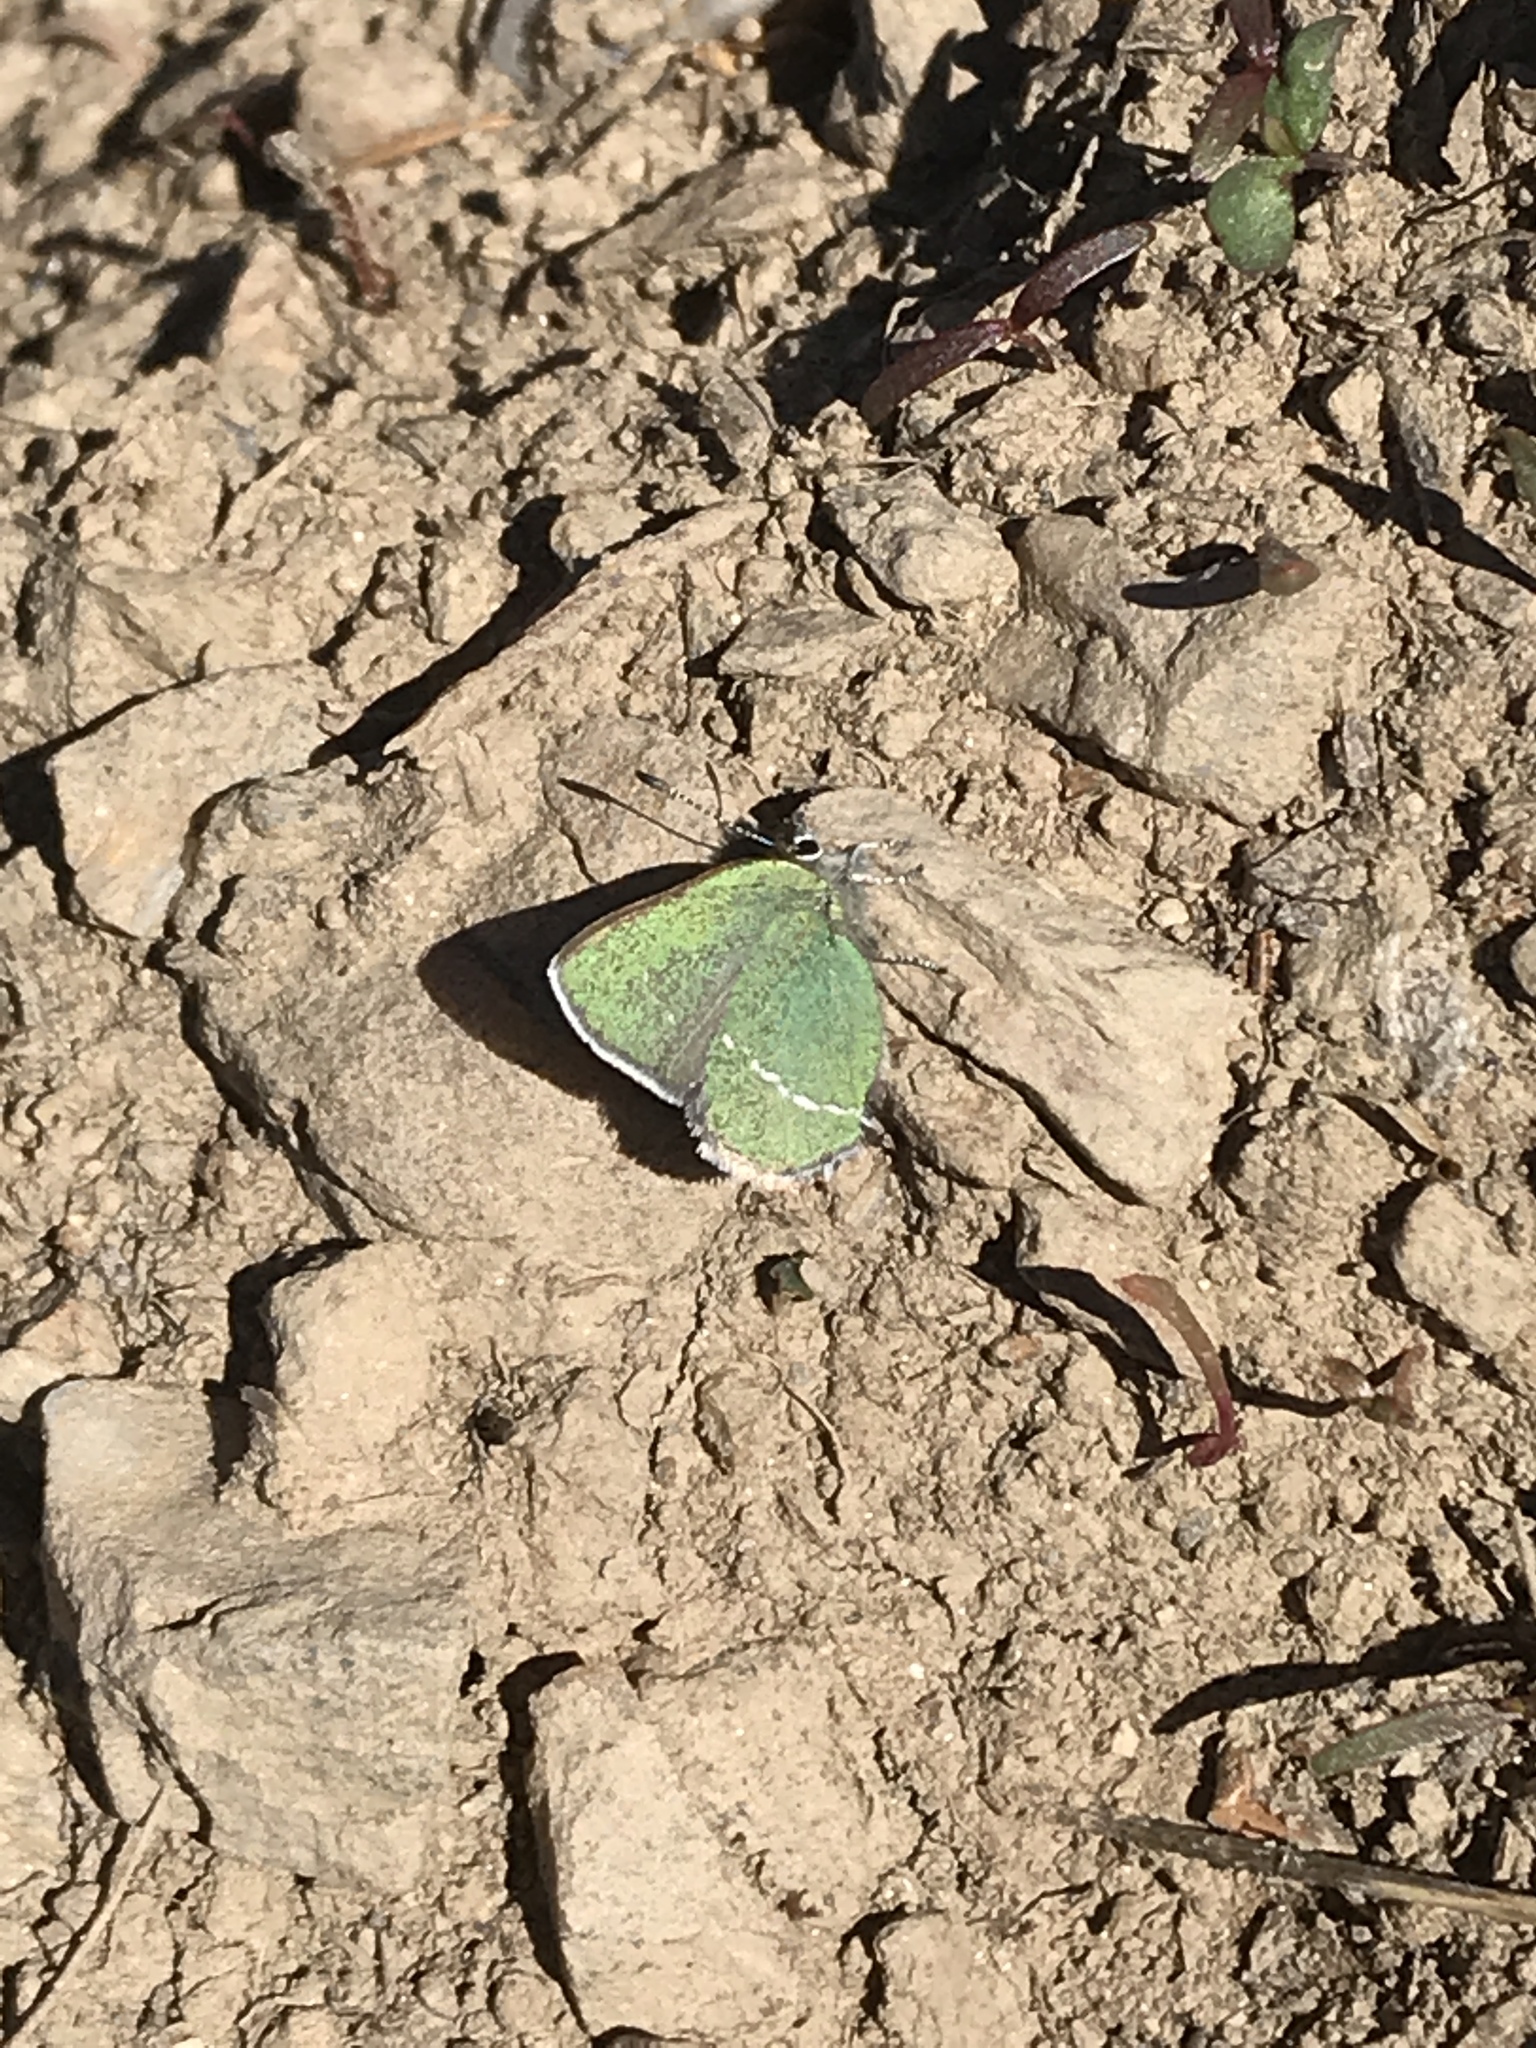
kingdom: Animalia
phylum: Arthropoda
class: Insecta
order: Lepidoptera
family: Lycaenidae
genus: Thecla
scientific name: Thecla sheridanii
